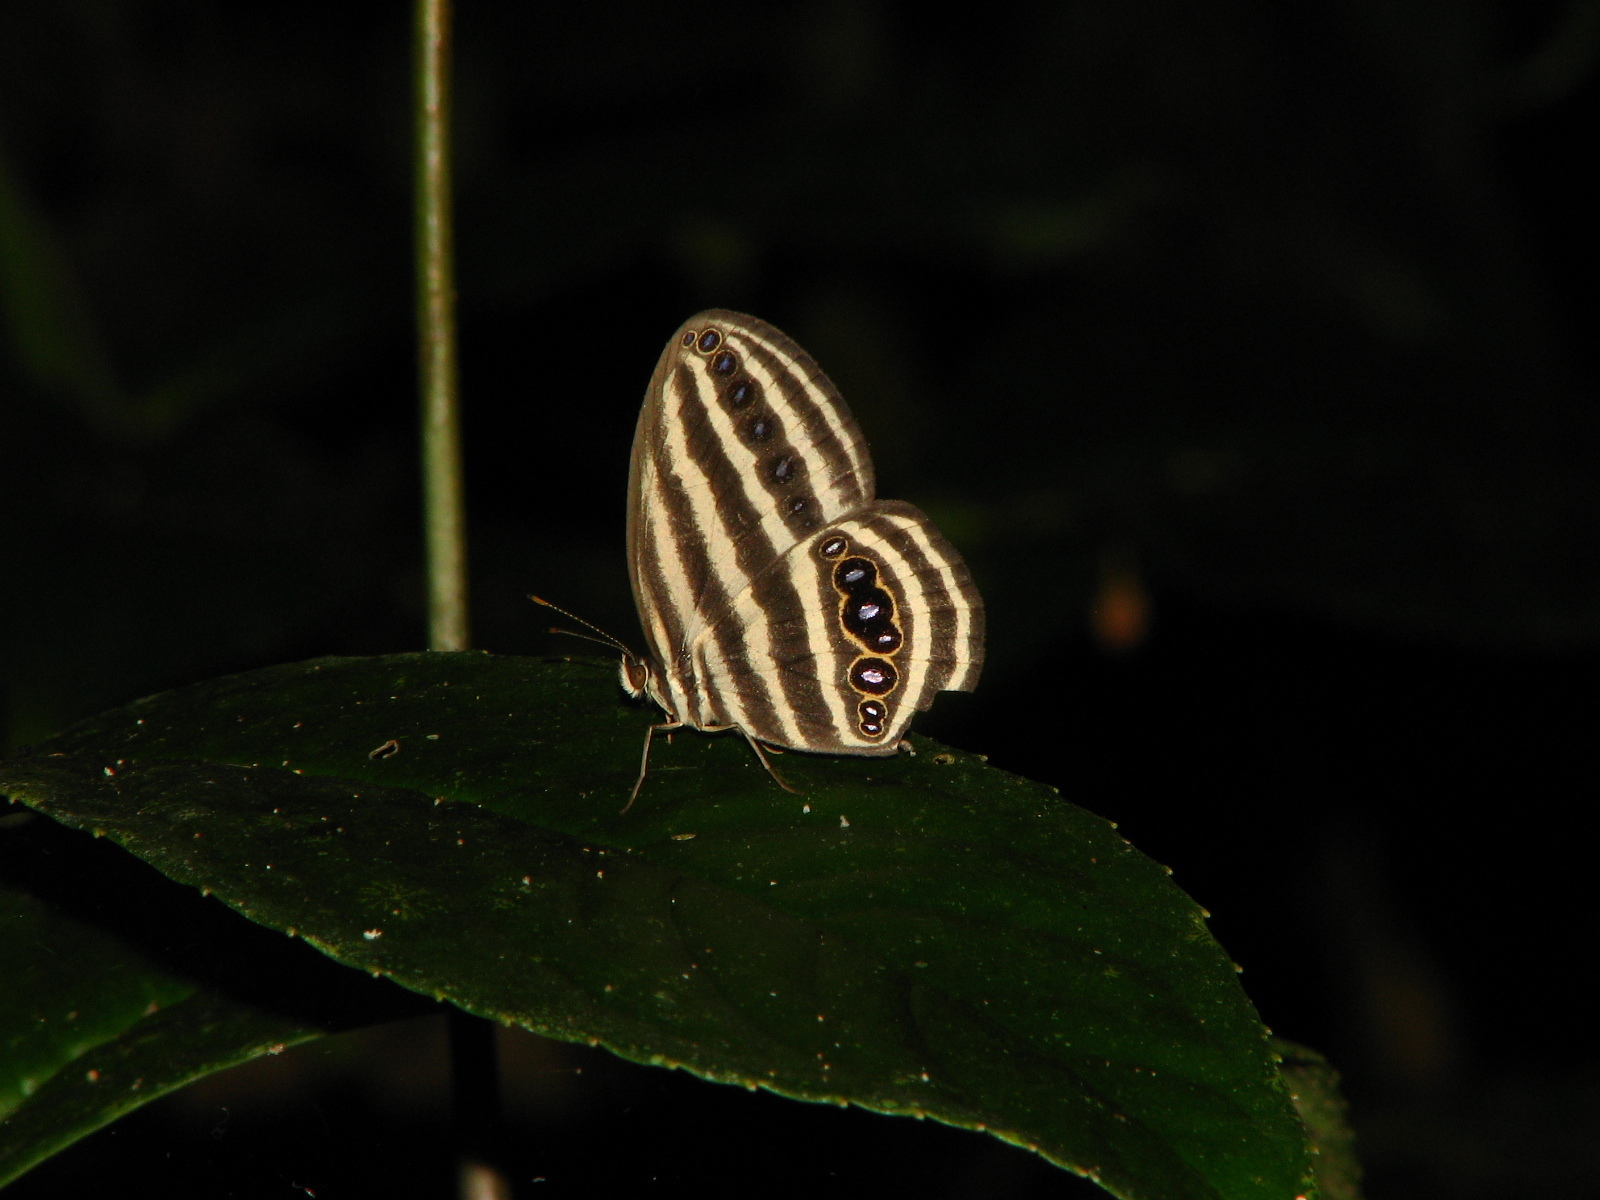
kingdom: Animalia
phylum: Arthropoda
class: Insecta
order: Lepidoptera
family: Nymphalidae
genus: Ragadia
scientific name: Ragadia crisilda
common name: White-striped ringlet
